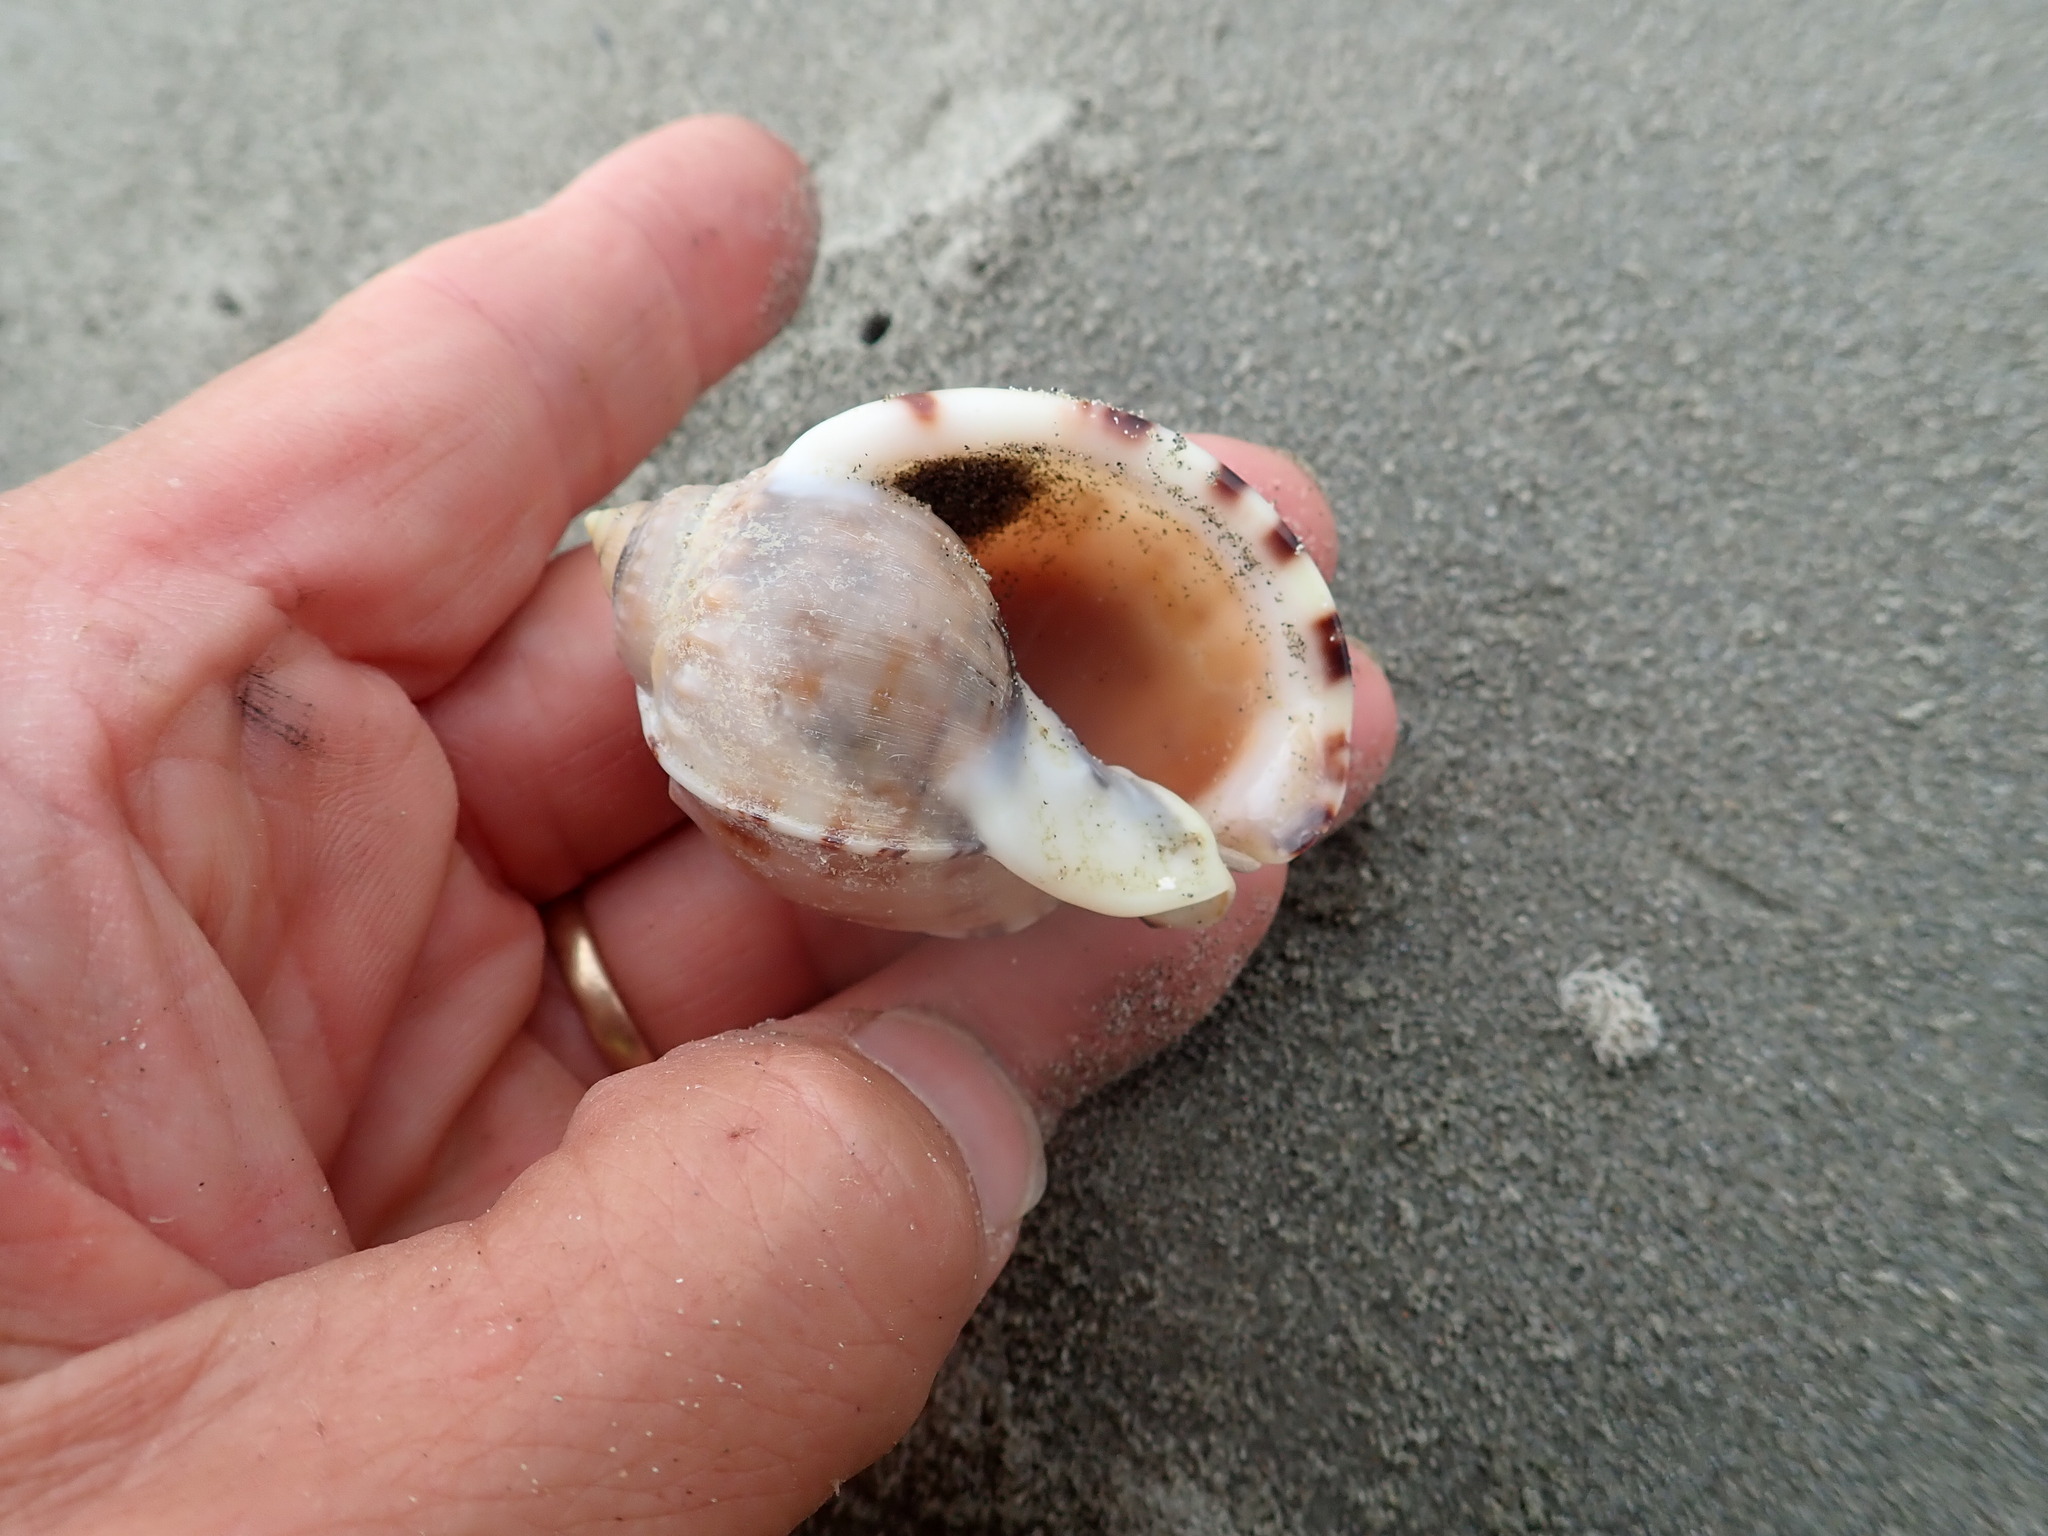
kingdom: Animalia
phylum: Mollusca
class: Gastropoda
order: Littorinimorpha
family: Cassidae
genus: Semicassis
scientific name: Semicassis pyrum
